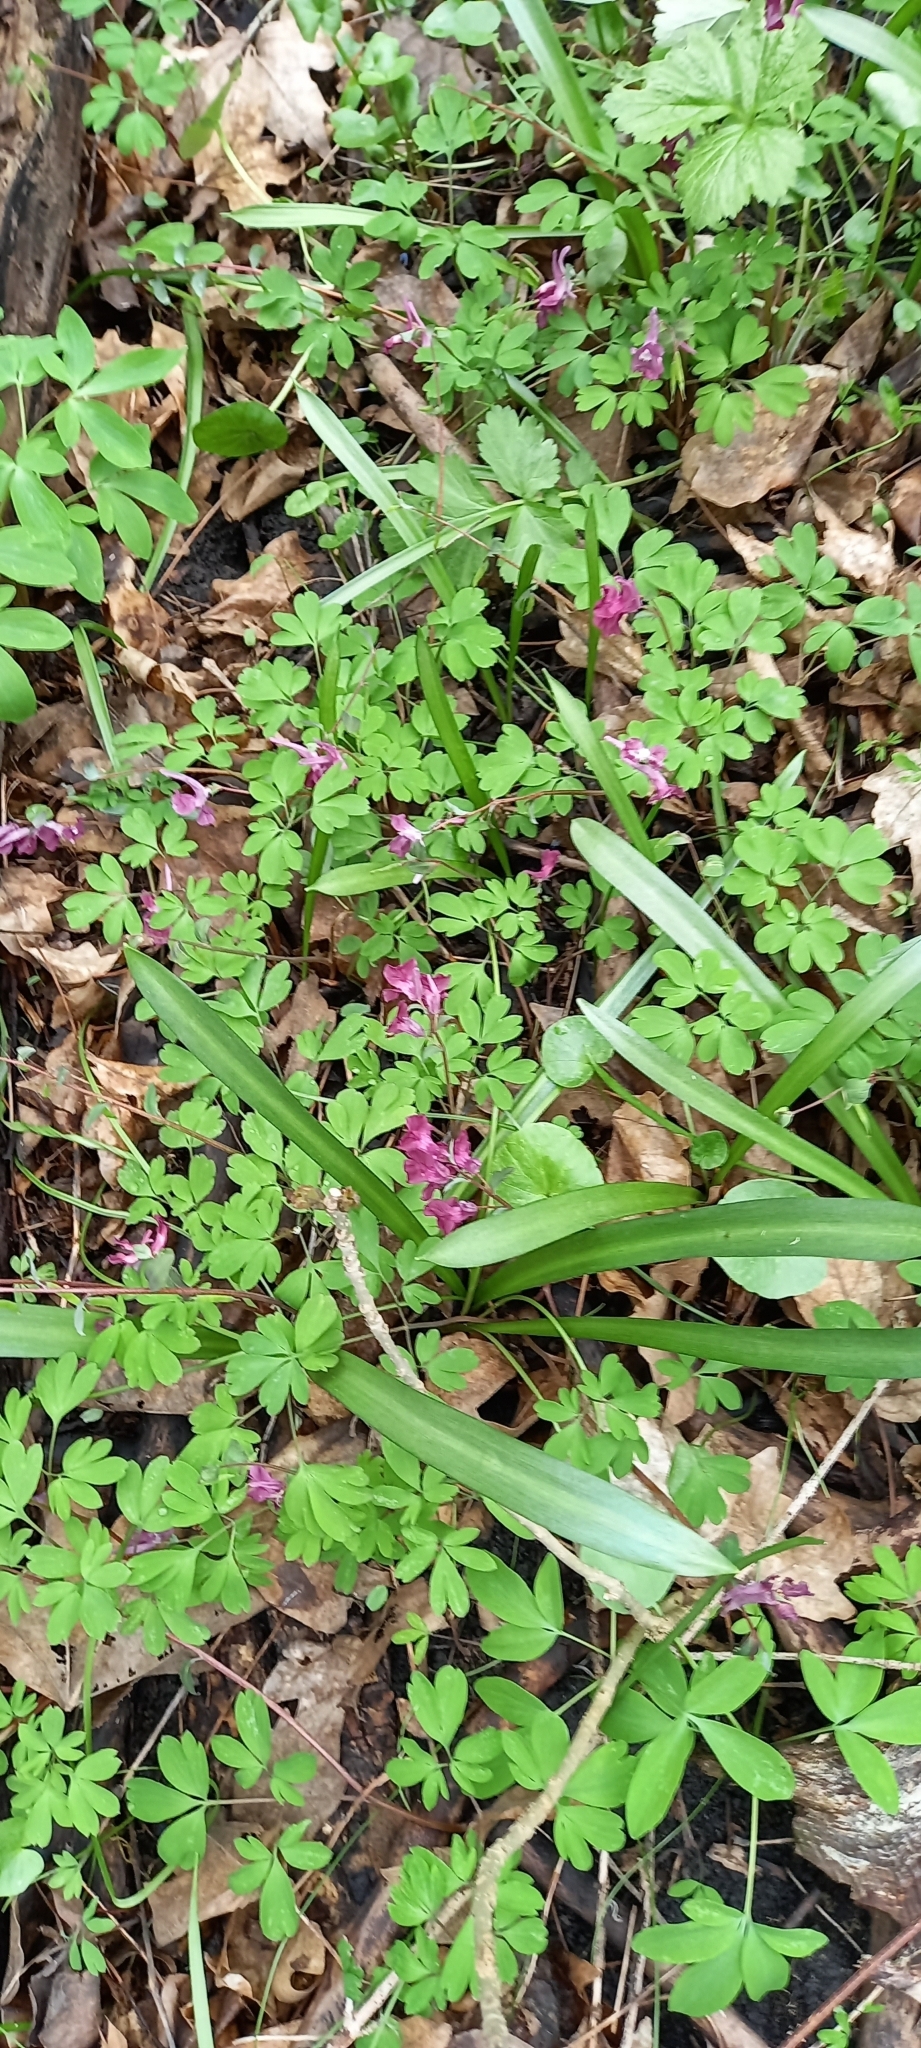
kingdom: Plantae
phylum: Tracheophyta
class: Magnoliopsida
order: Ranunculales
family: Papaveraceae
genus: Corydalis
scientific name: Corydalis caucasica
